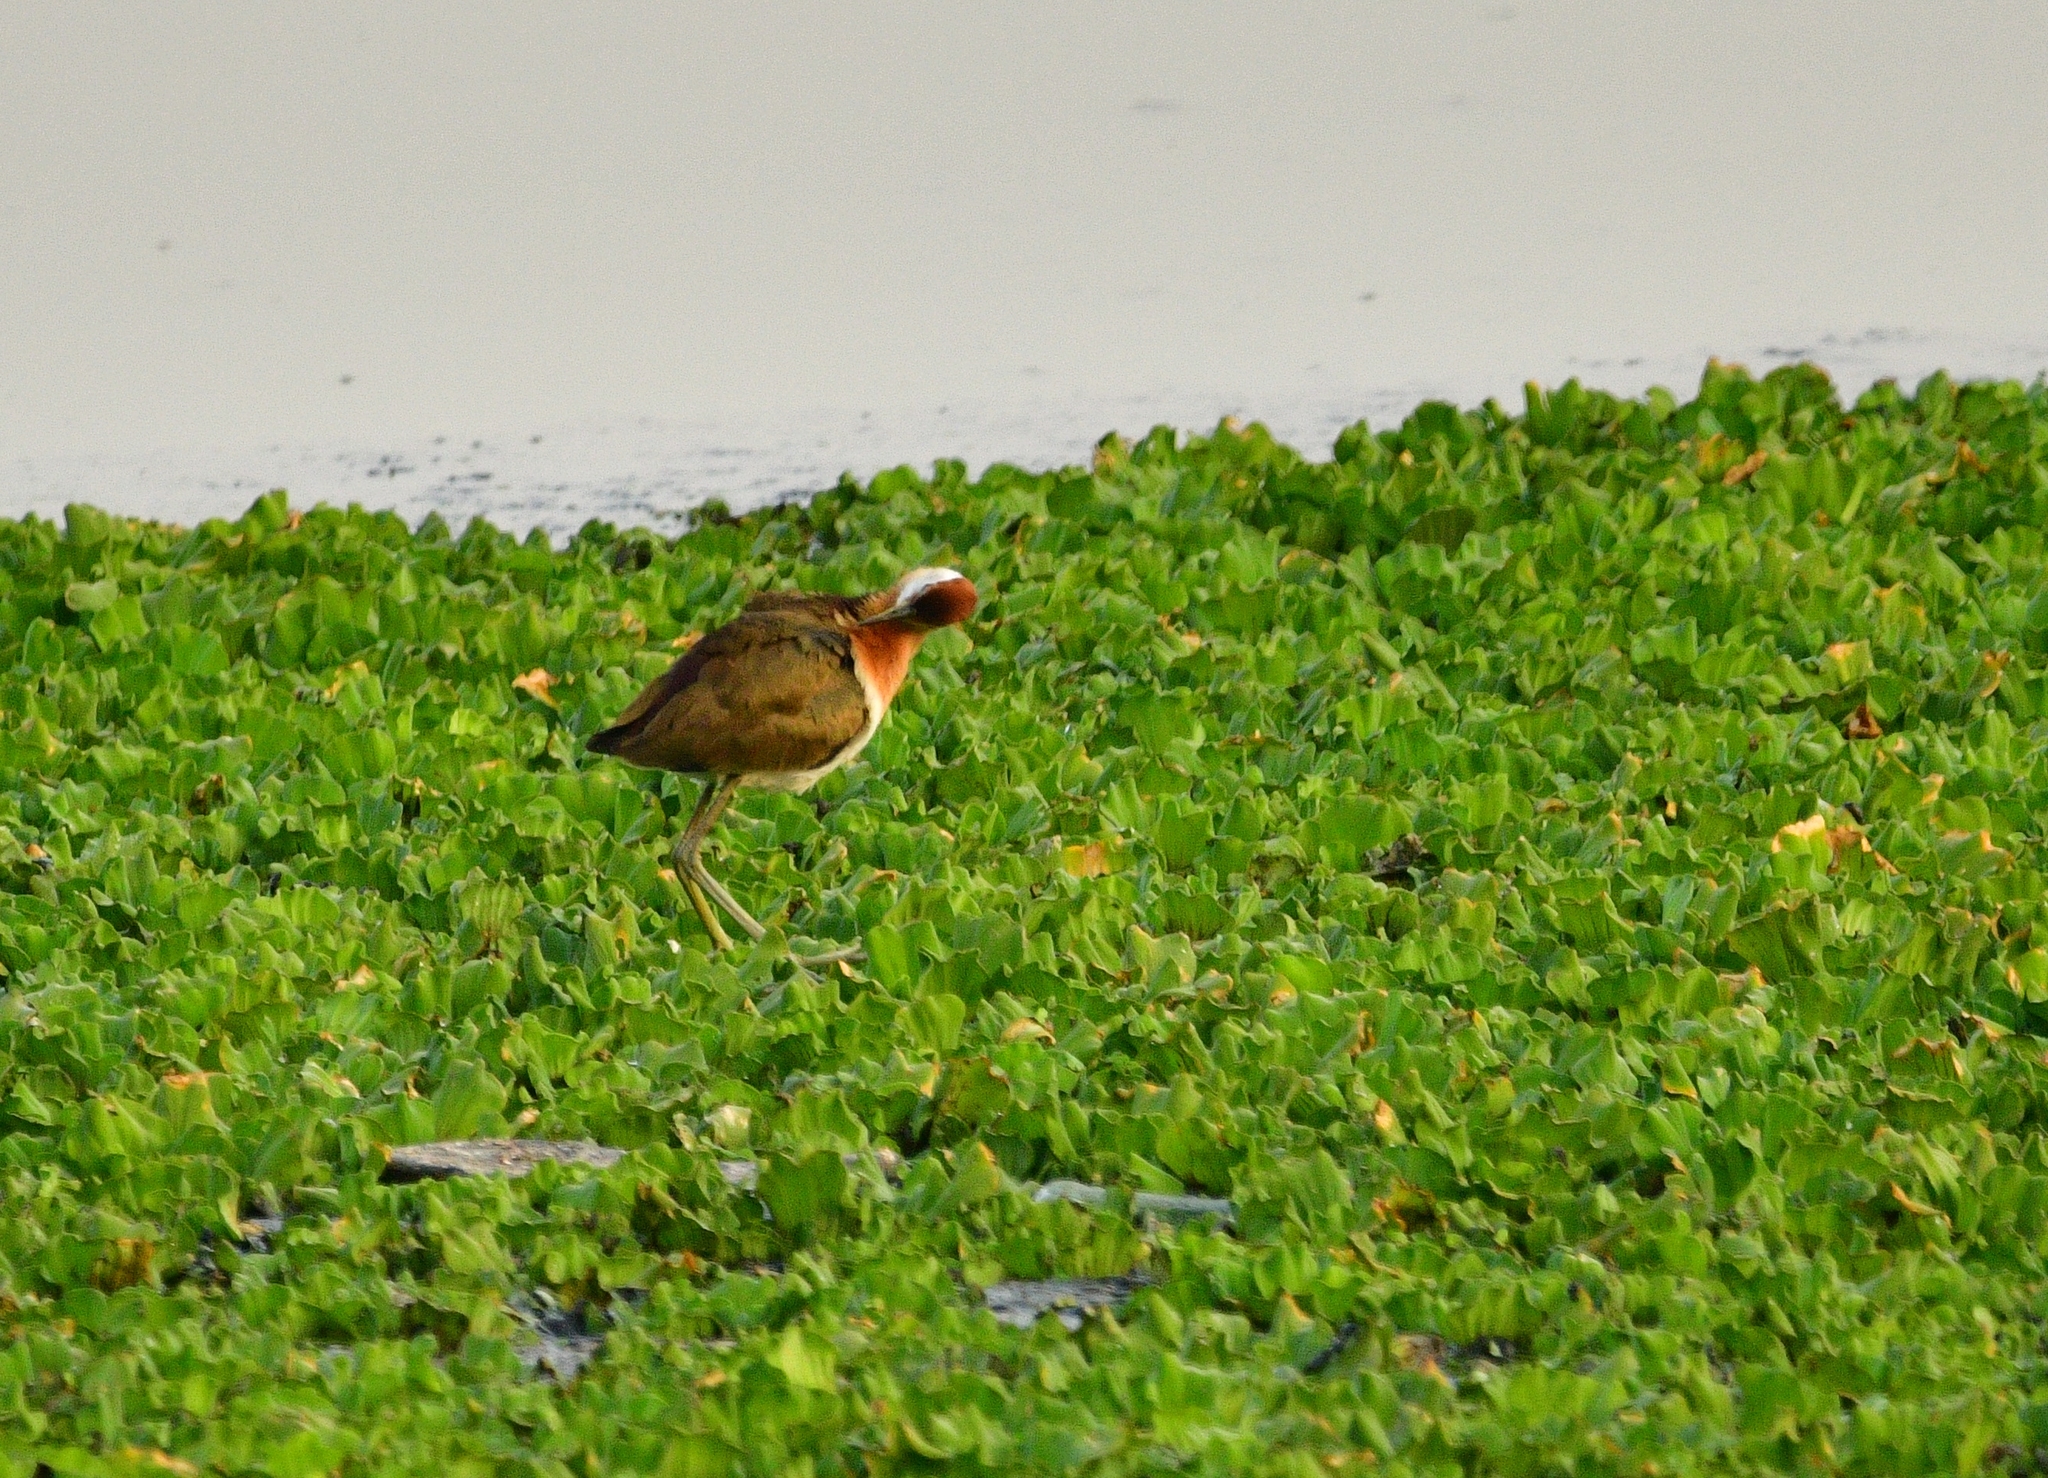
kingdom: Animalia
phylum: Chordata
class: Aves
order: Charadriiformes
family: Jacanidae
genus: Metopidius
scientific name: Metopidius indicus
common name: Bronze-winged jacana
